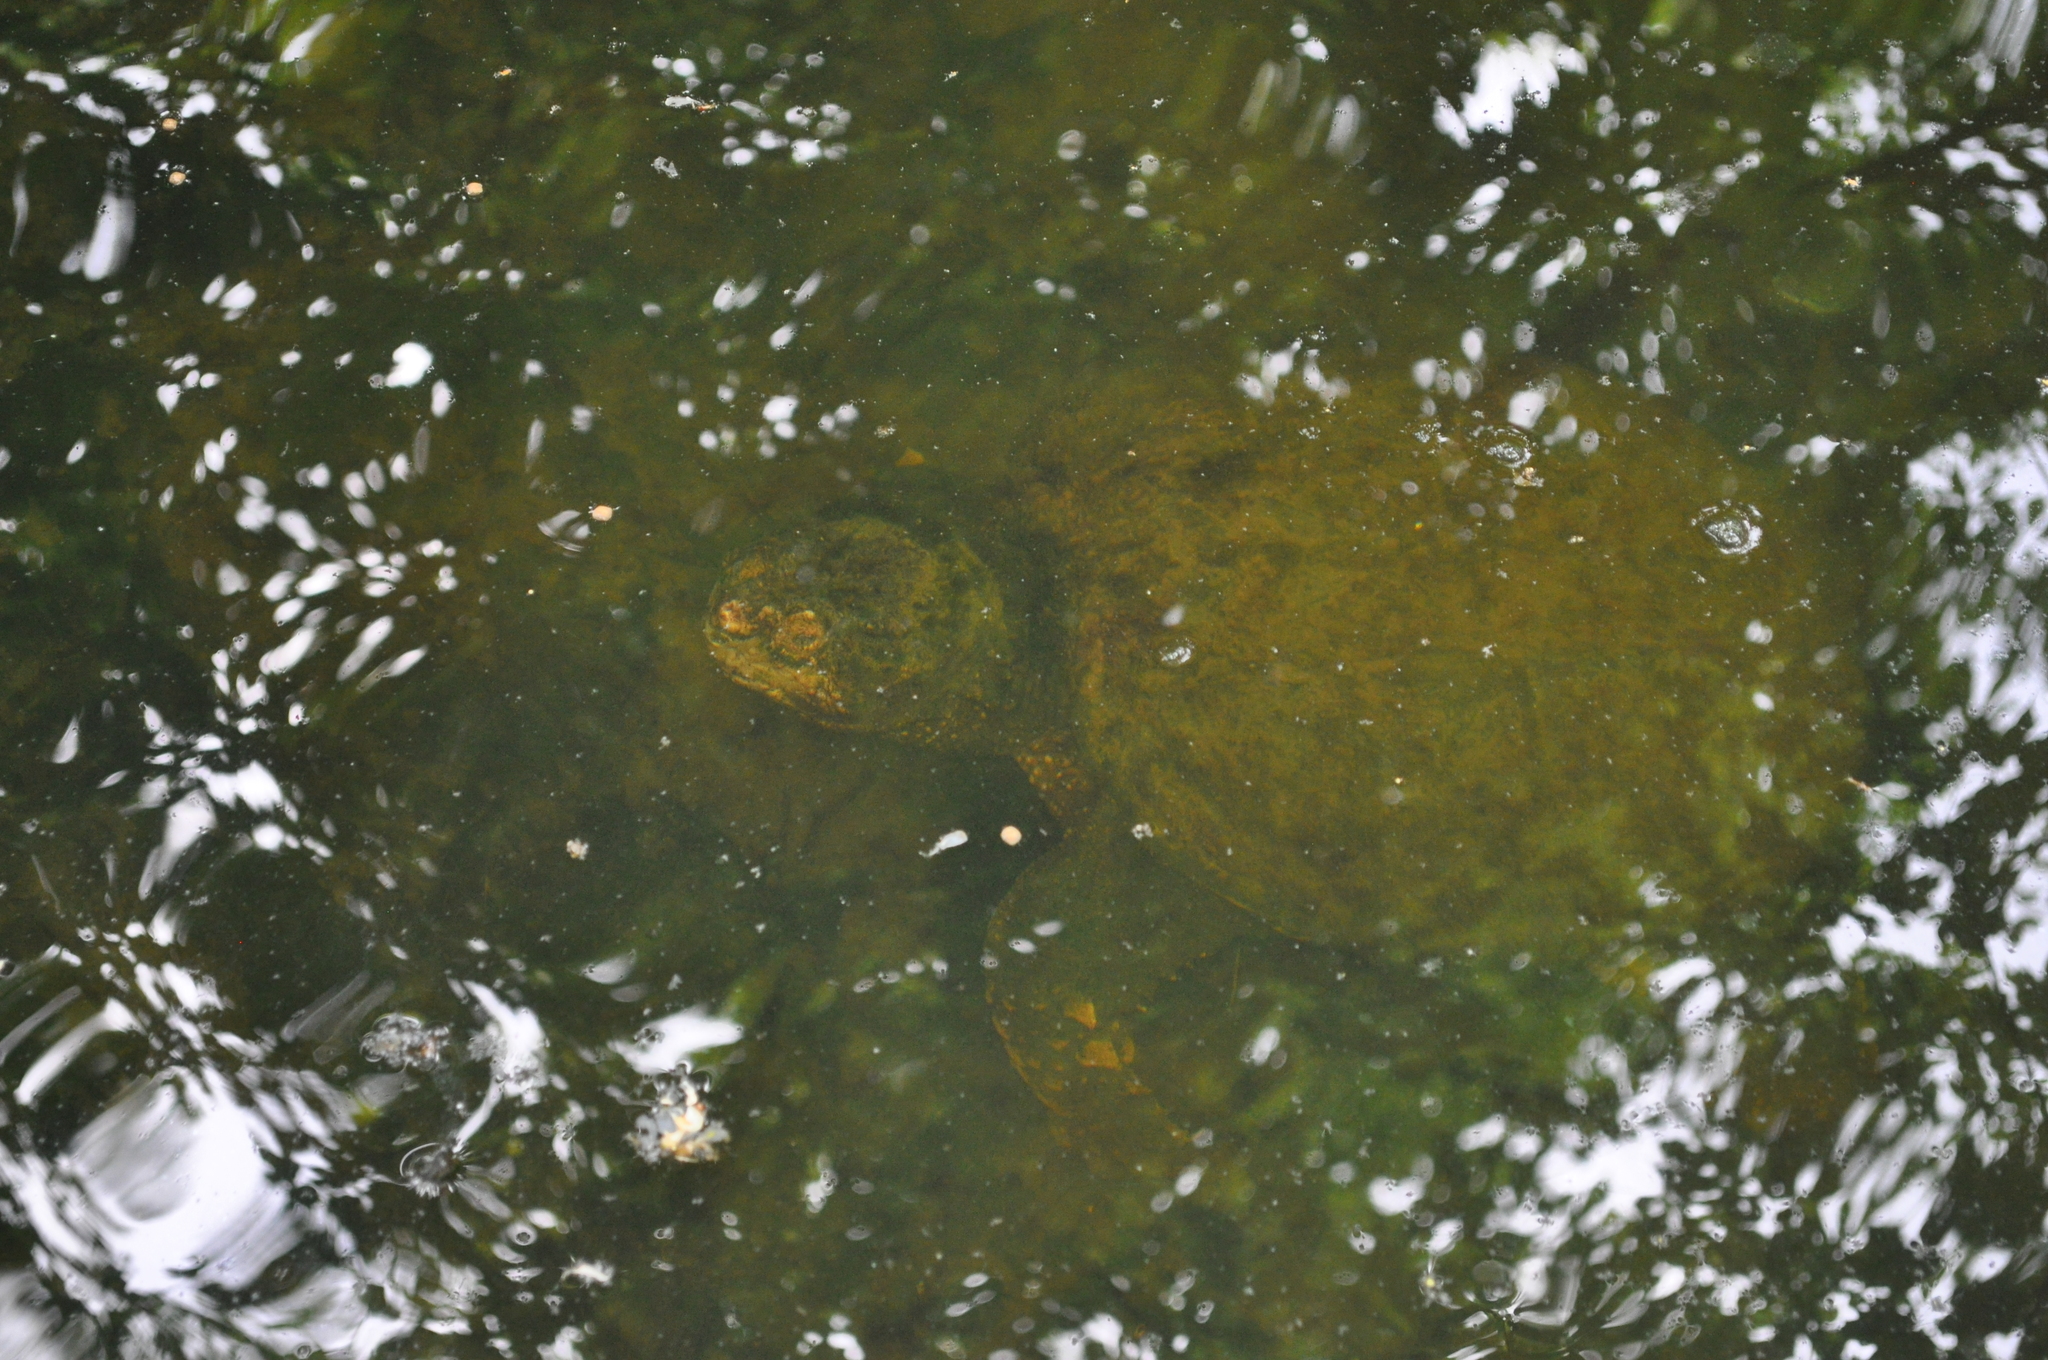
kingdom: Animalia
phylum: Chordata
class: Testudines
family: Chelydridae
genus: Chelydra
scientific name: Chelydra serpentina
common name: Common snapping turtle
